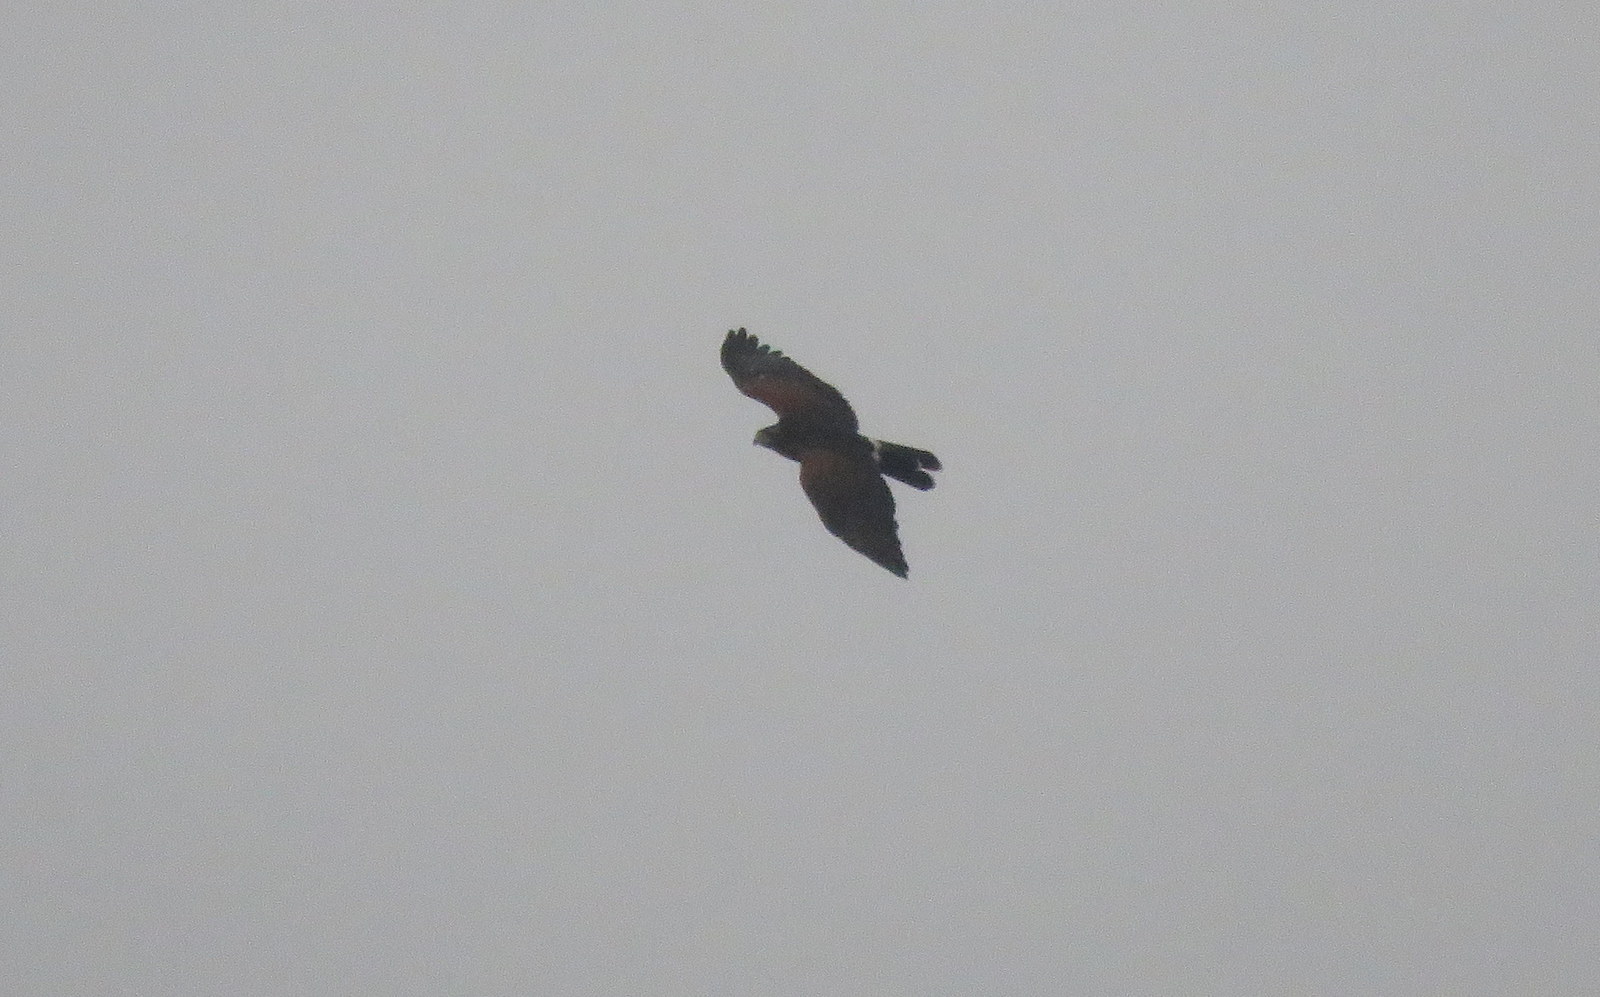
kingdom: Animalia
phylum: Chordata
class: Aves
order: Accipitriformes
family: Accipitridae
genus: Parabuteo
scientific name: Parabuteo unicinctus
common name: Harris's hawk
